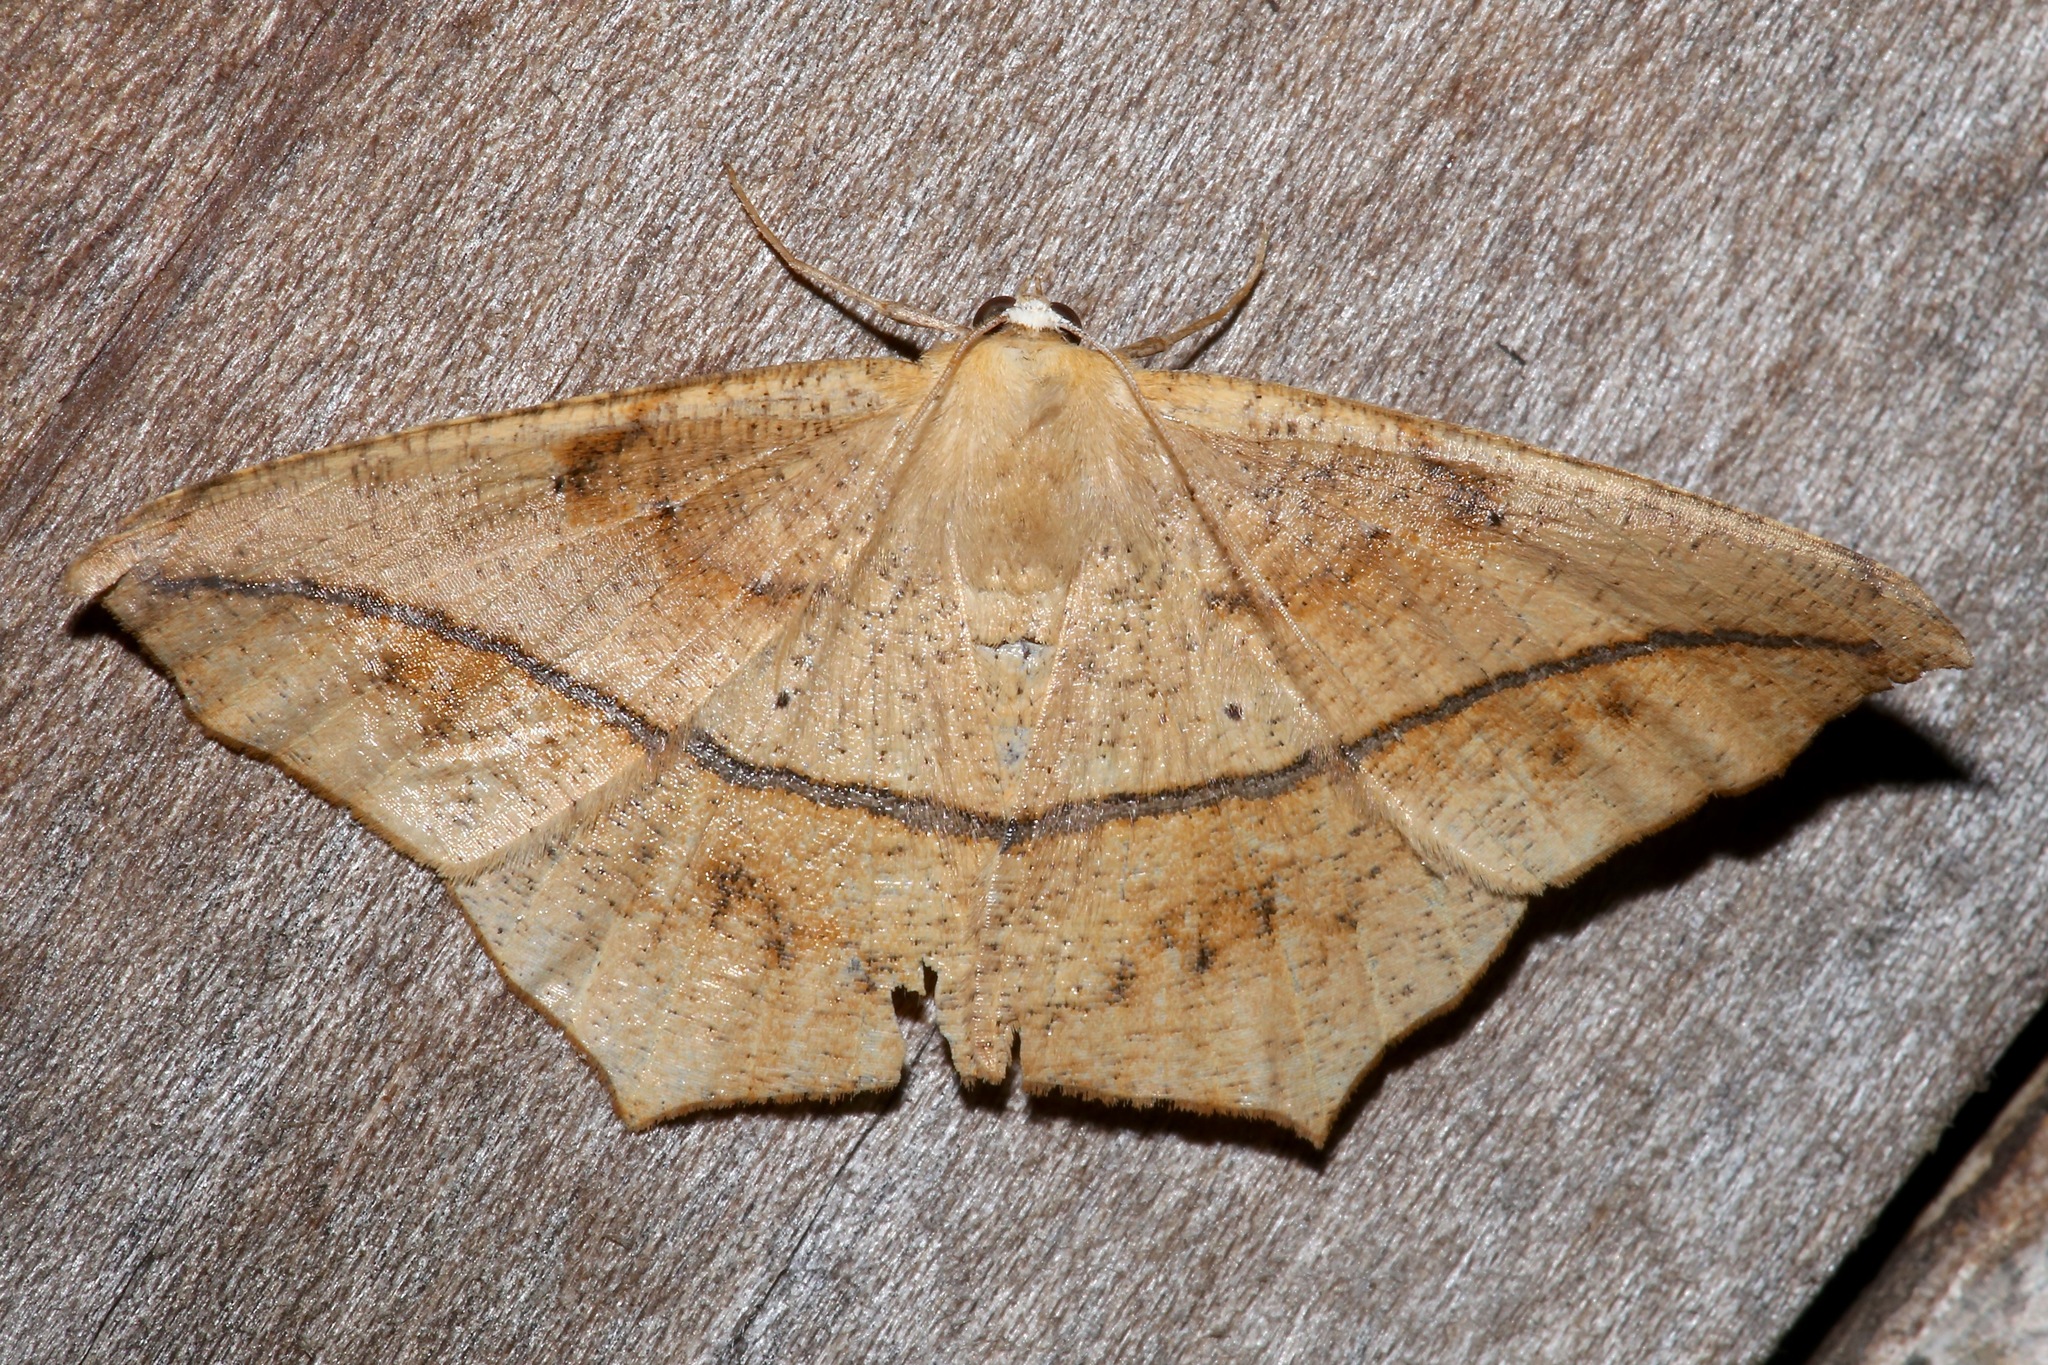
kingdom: Animalia
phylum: Arthropoda
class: Insecta
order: Lepidoptera
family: Geometridae
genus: Prochoerodes
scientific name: Prochoerodes lineola
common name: Large maple spanworm
